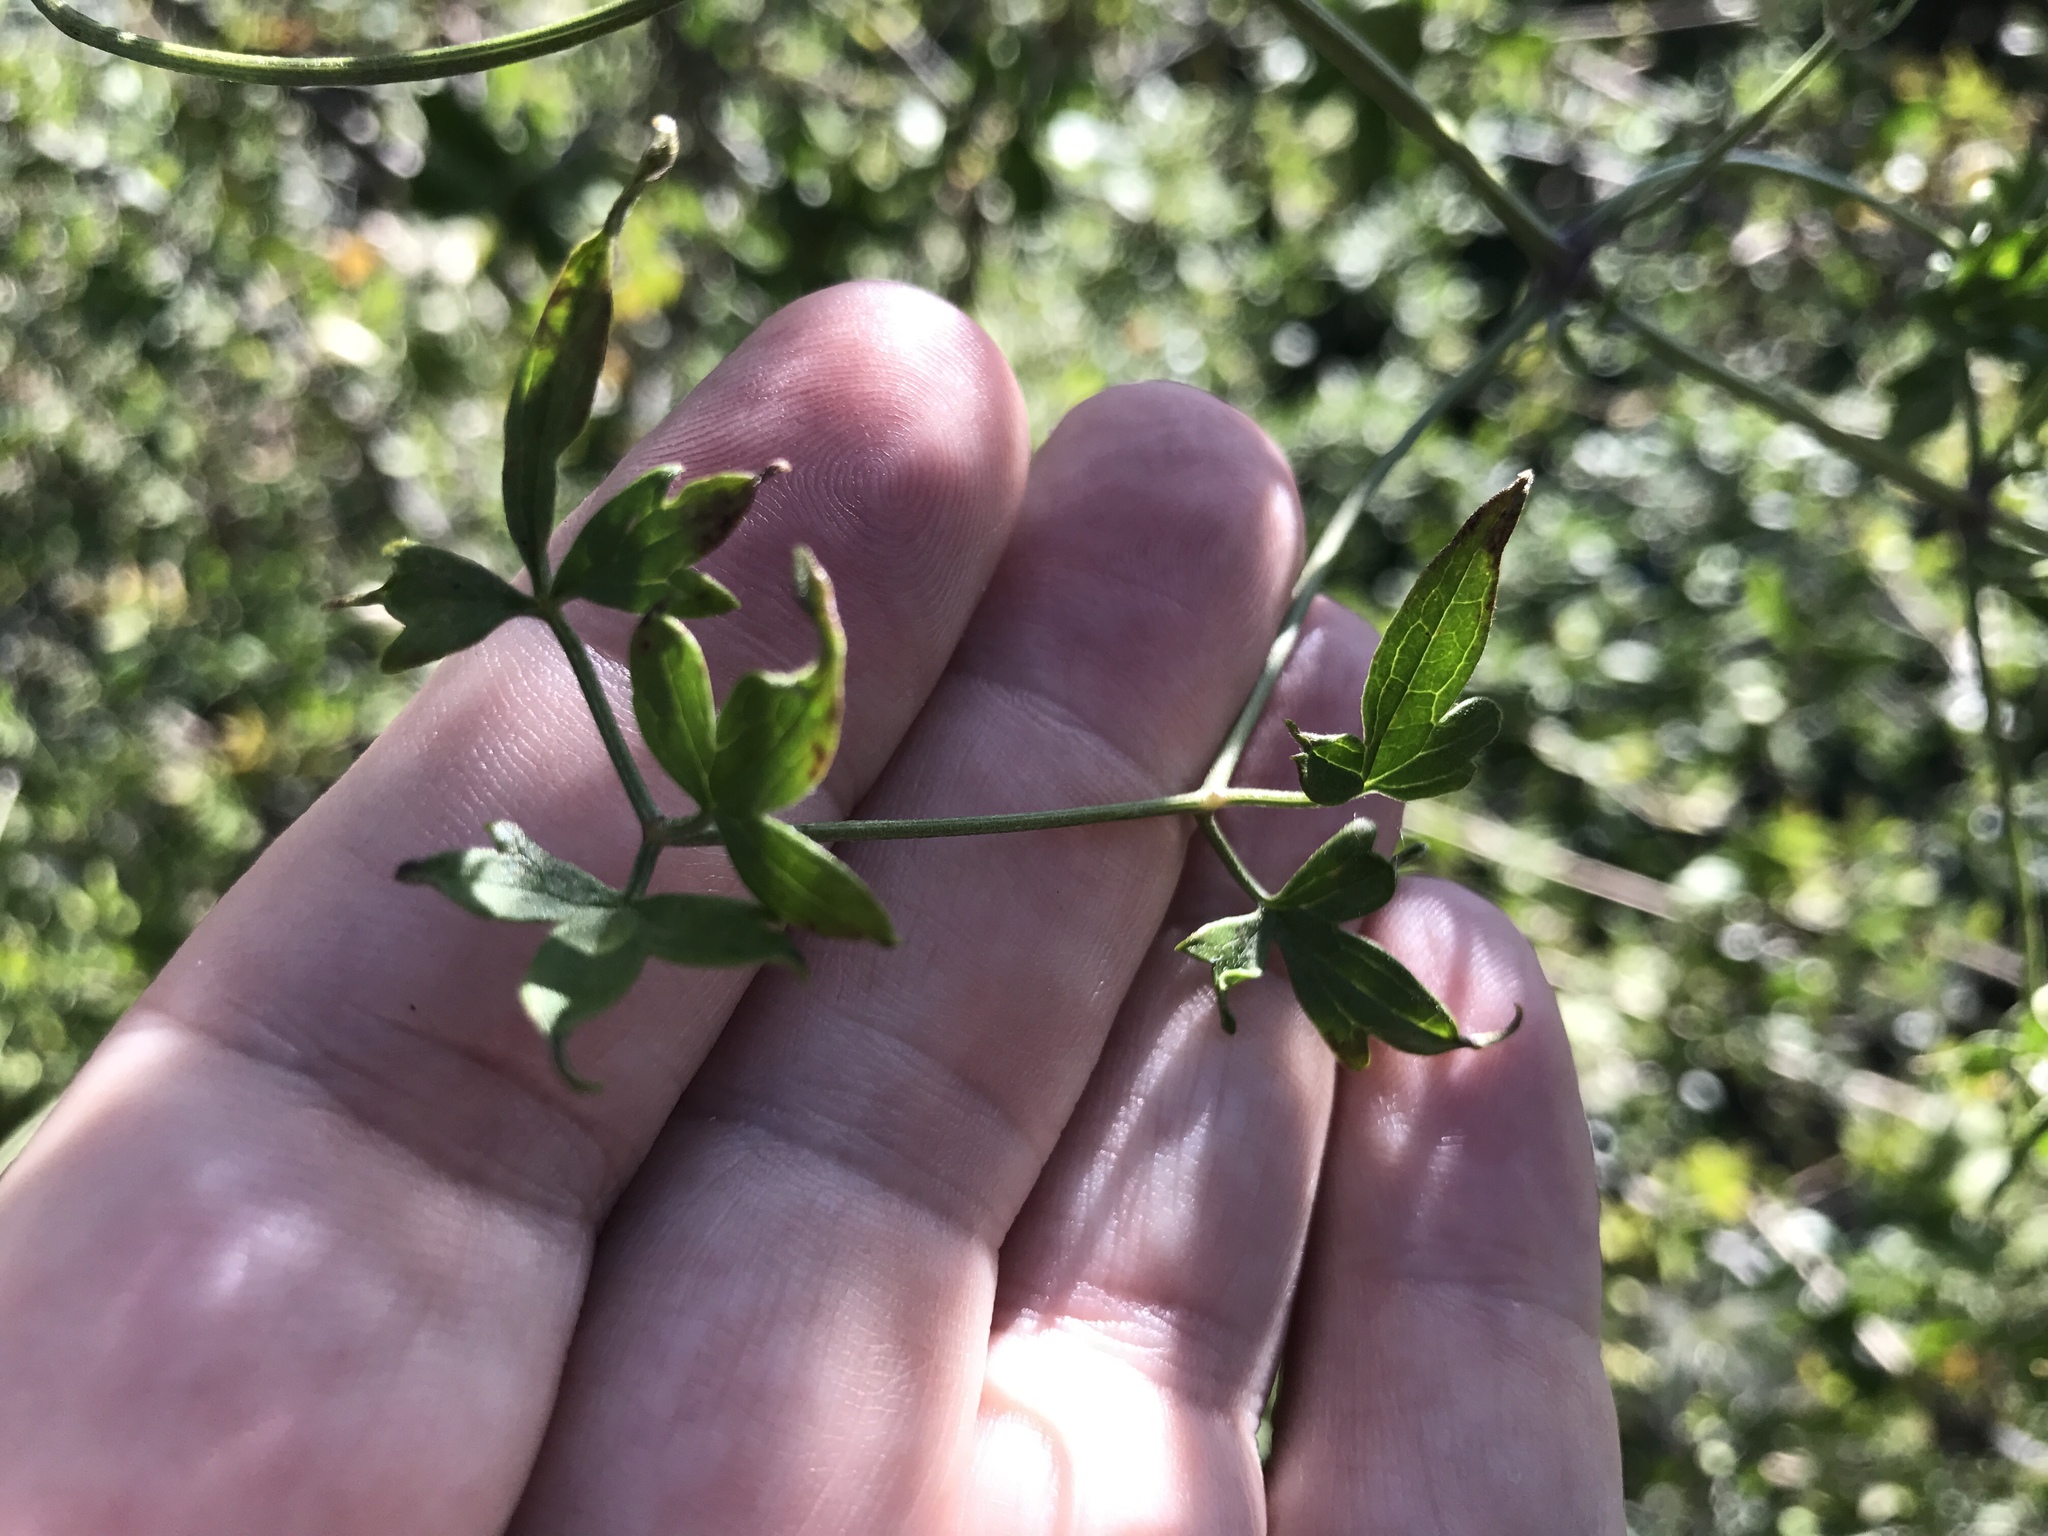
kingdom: Plantae
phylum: Tracheophyta
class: Magnoliopsida
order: Ranunculales
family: Ranunculaceae
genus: Clematis
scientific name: Clematis drummondii
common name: Texas virgin's bower
